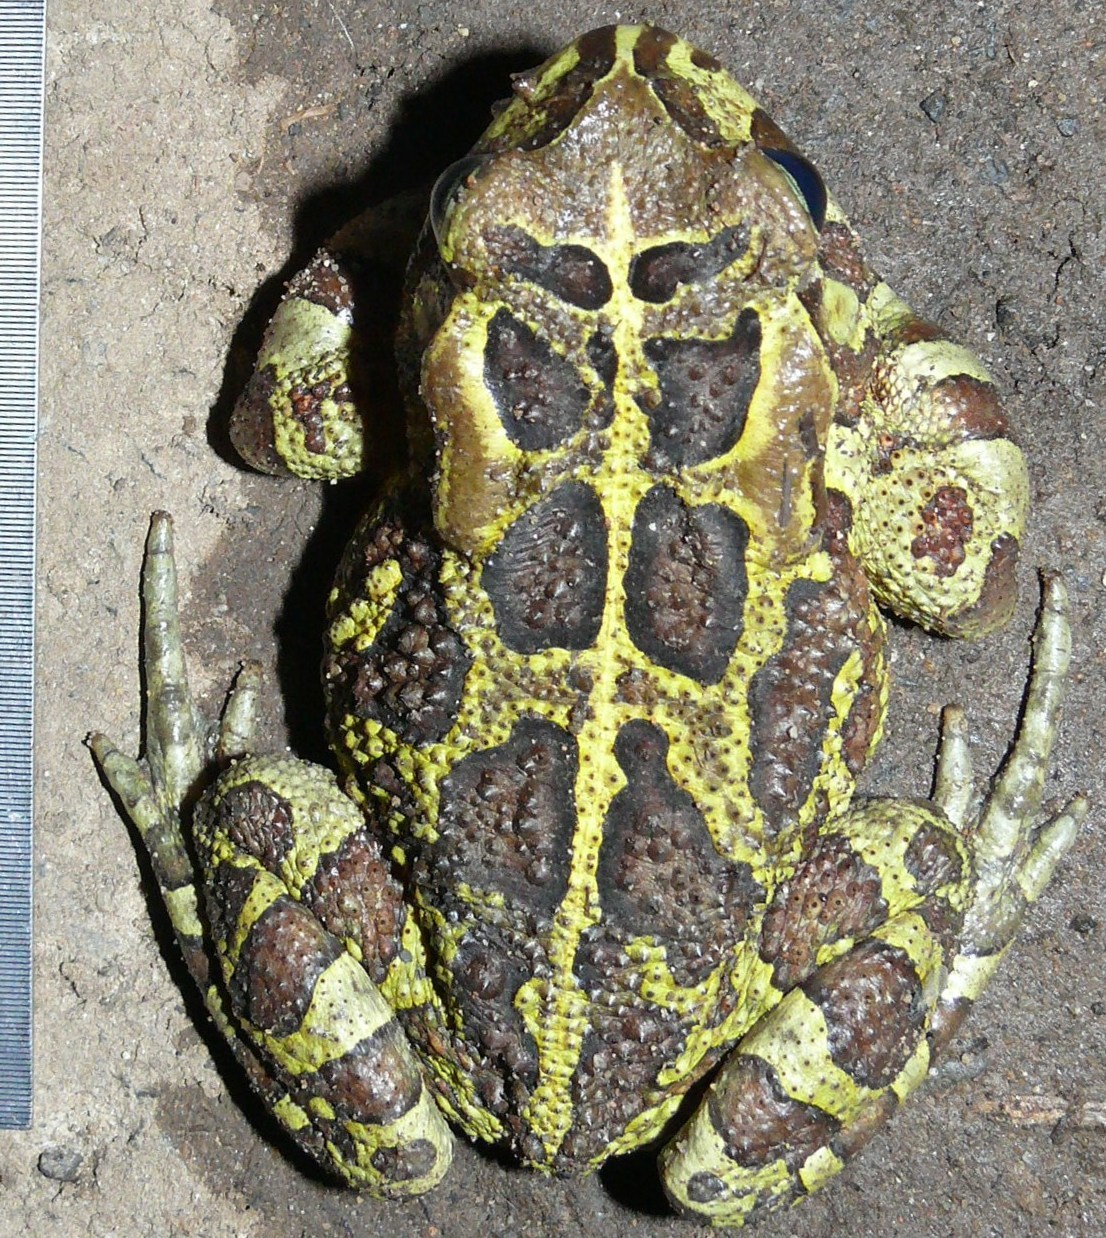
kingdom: Animalia
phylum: Chordata
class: Amphibia
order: Anura
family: Bufonidae
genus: Sclerophrys
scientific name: Sclerophrys pantherina
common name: Panther toad
